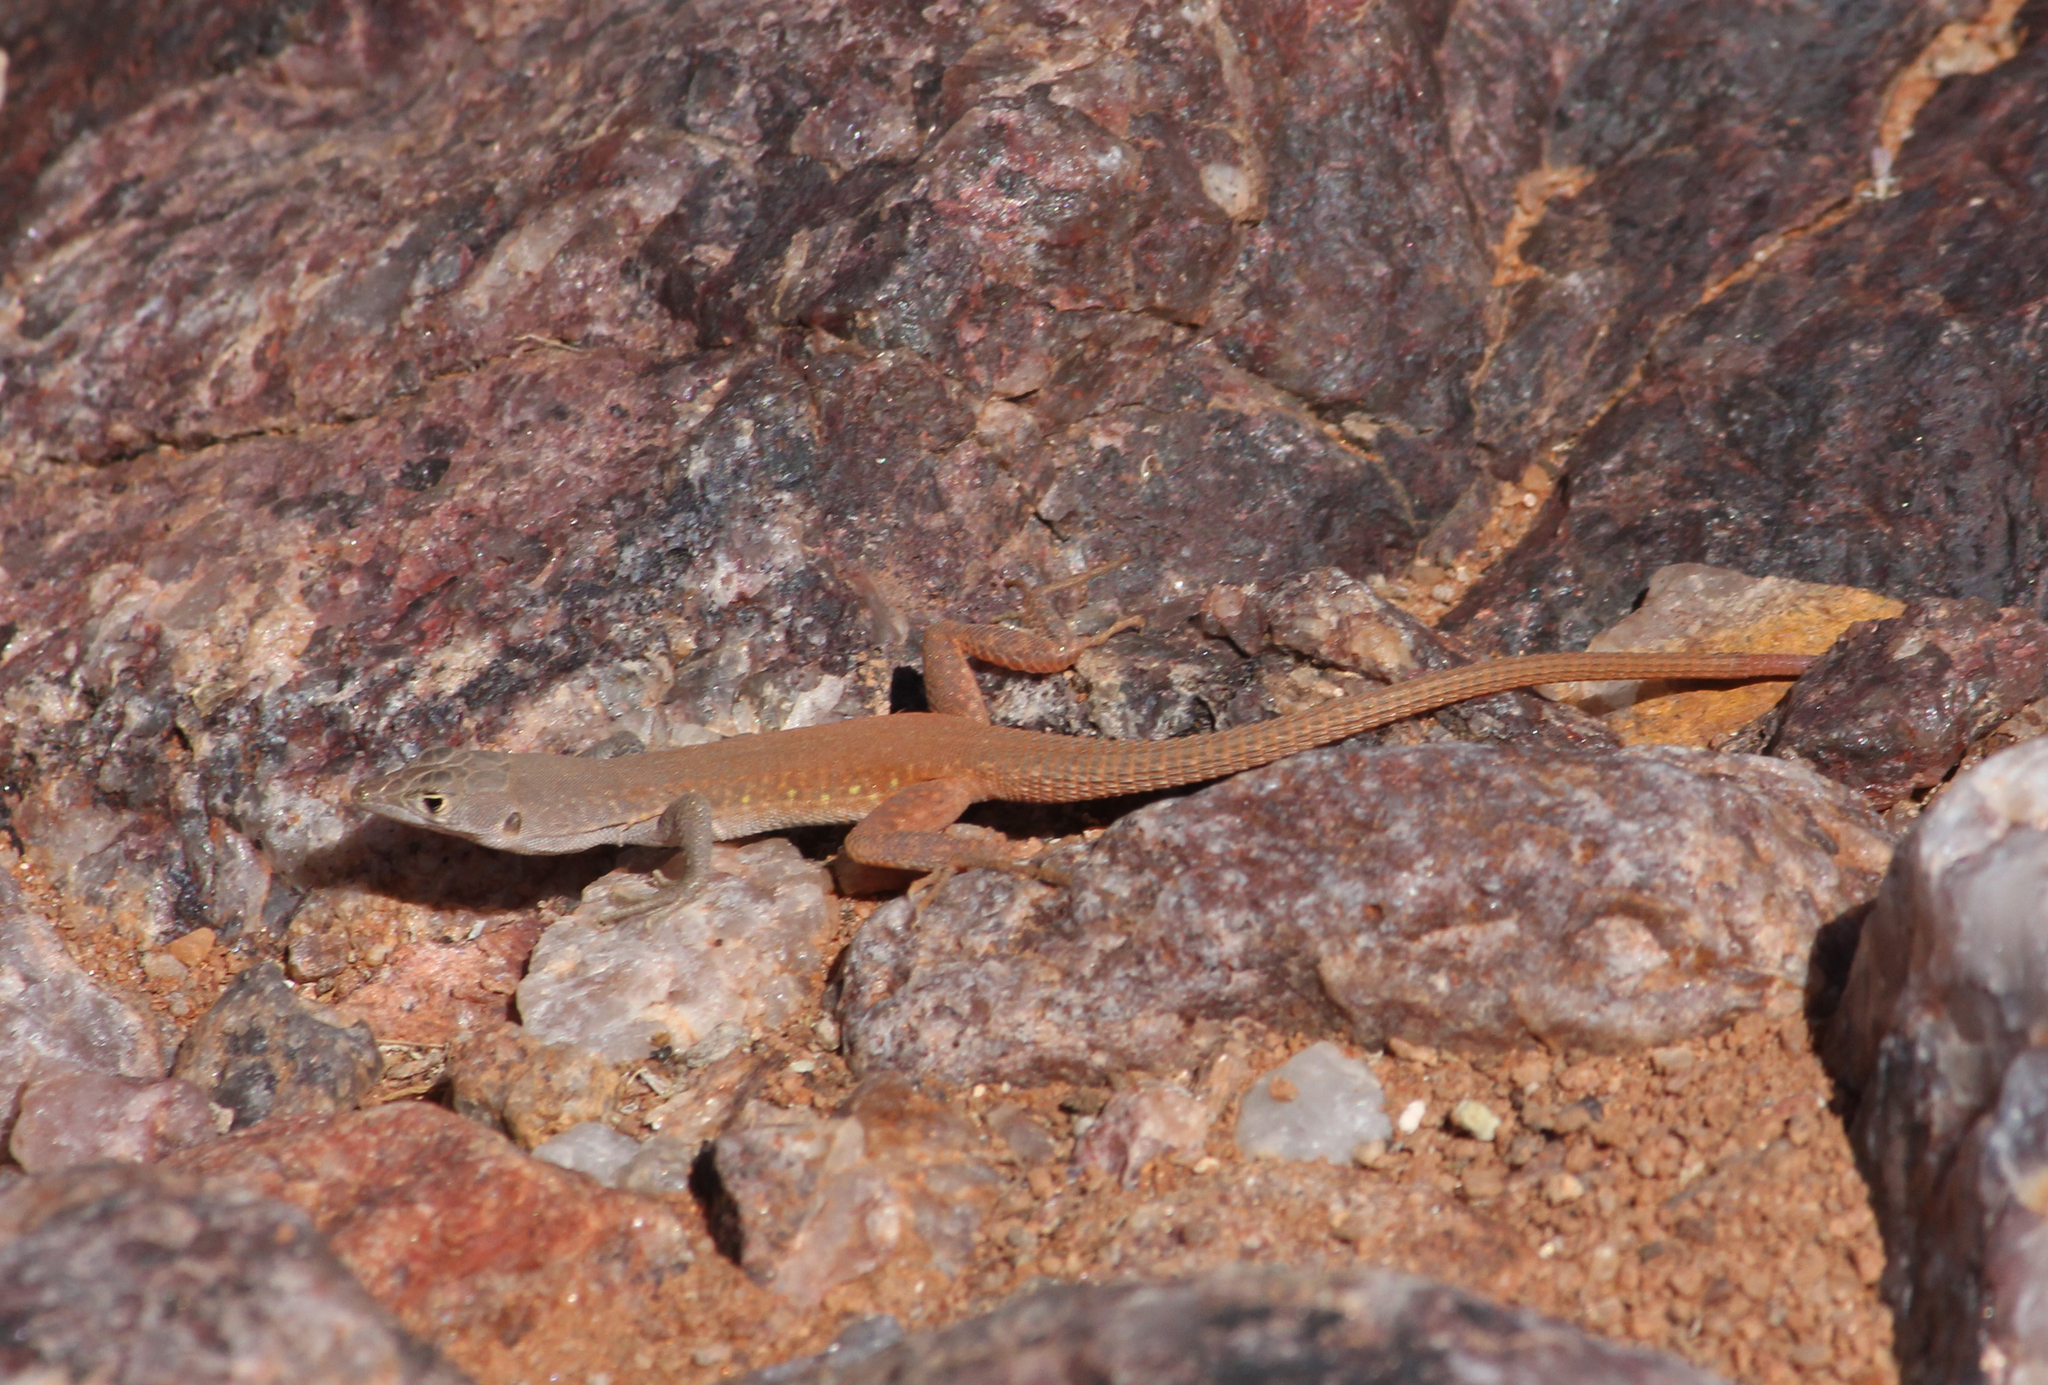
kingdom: Animalia
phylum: Chordata
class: Squamata
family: Lacertidae
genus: Pedioplanis
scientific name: Pedioplanis inornata
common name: Plain sand lizard
